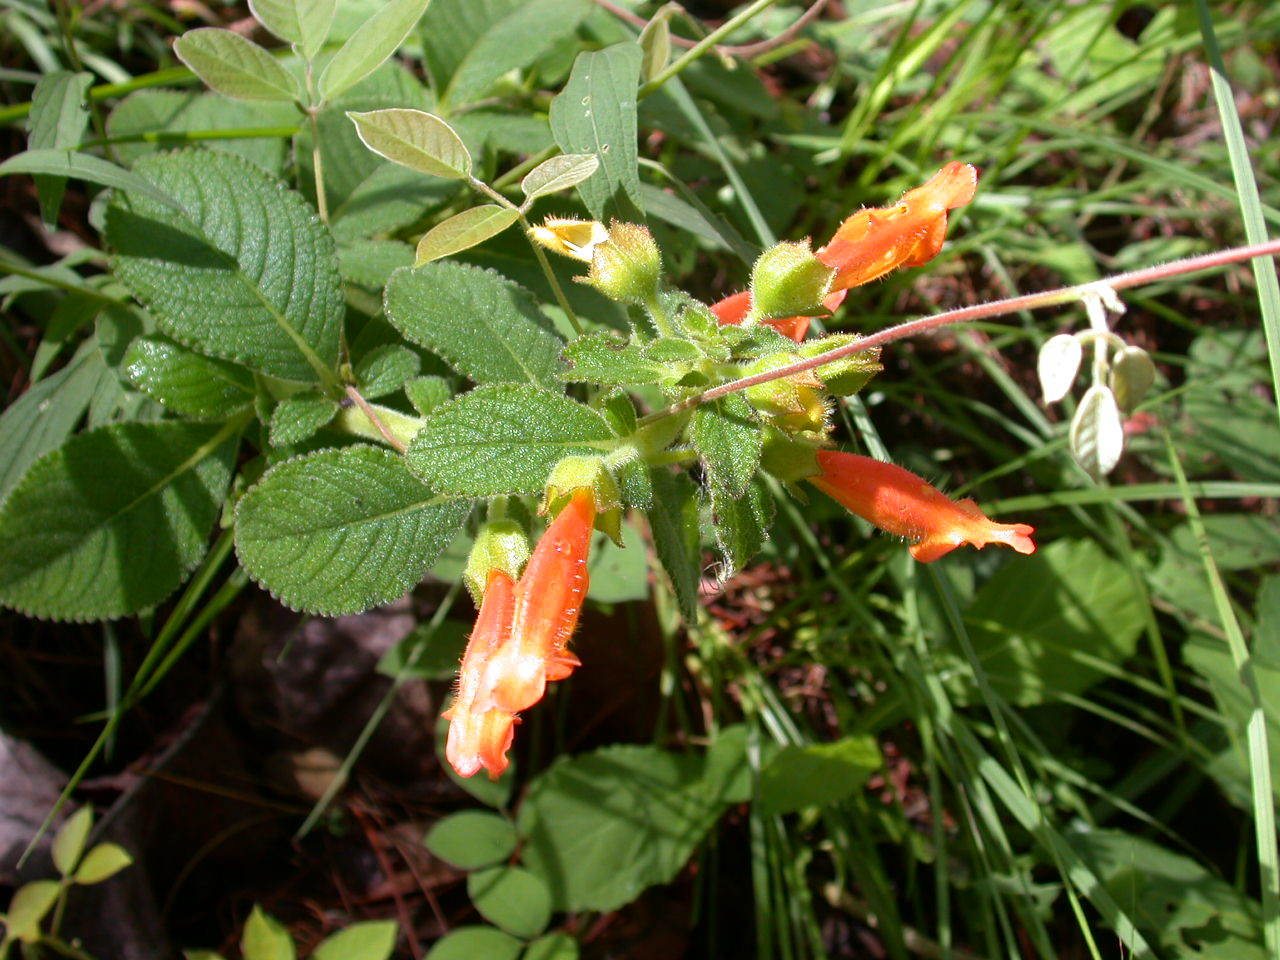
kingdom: Plantae
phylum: Tracheophyta
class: Magnoliopsida
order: Lamiales
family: Gesneriaceae
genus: Sinningia
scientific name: Sinningia incarnata
